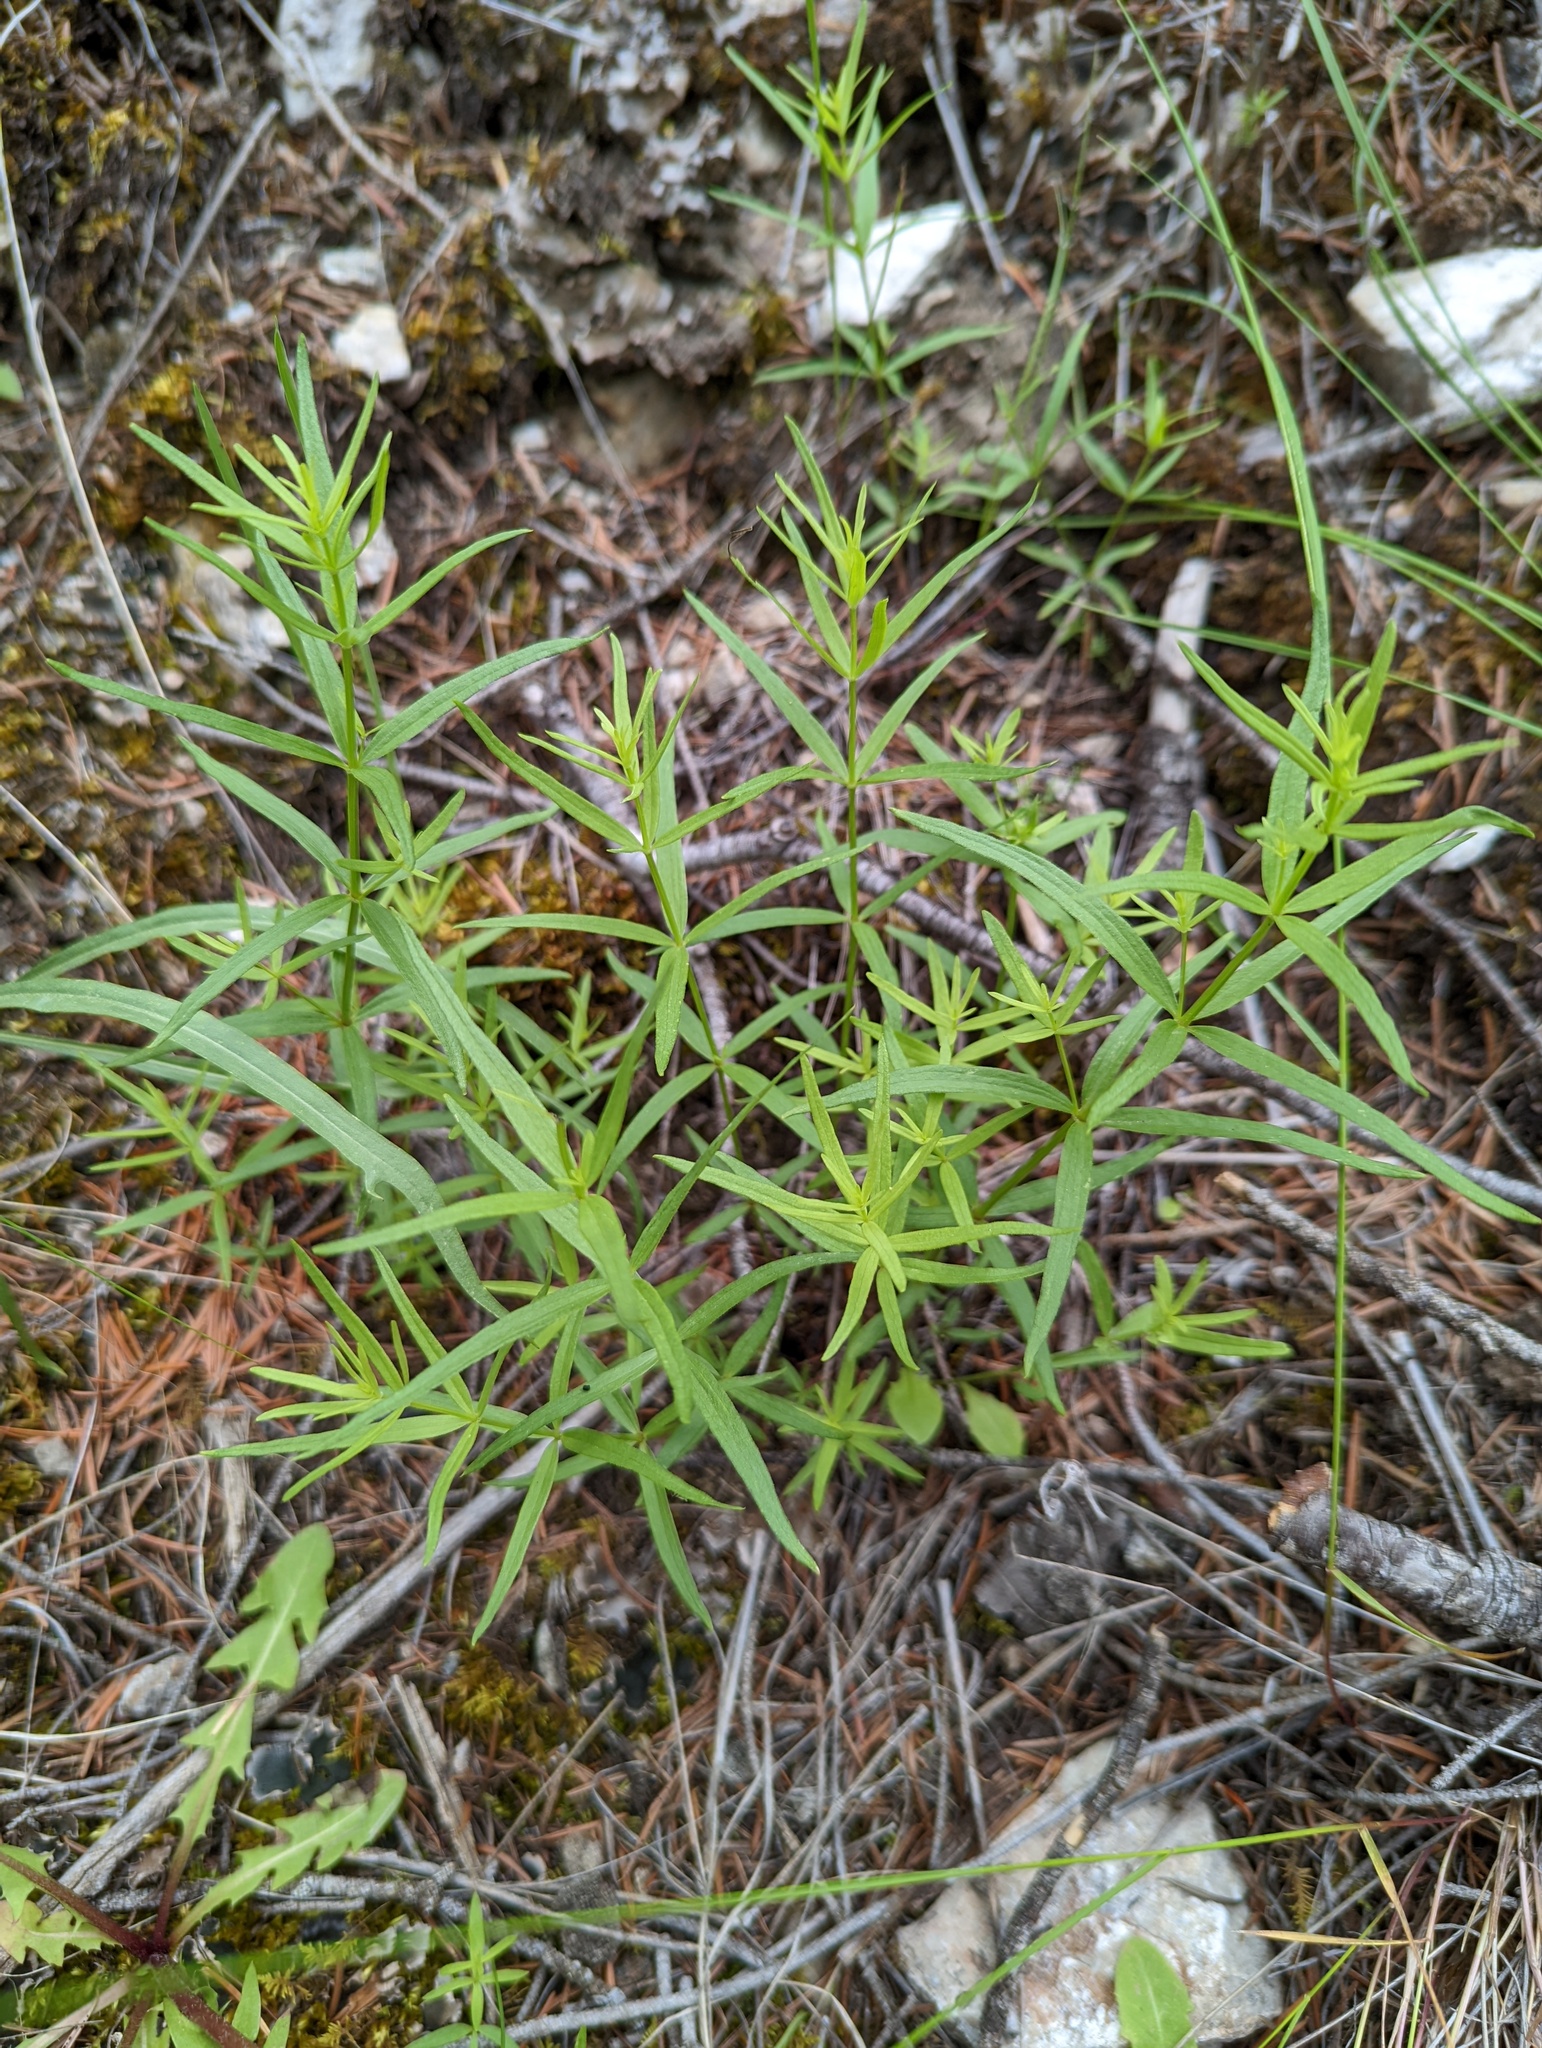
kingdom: Plantae
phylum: Tracheophyta
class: Magnoliopsida
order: Gentianales
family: Rubiaceae
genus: Galium
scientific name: Galium boreale
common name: Northern bedstraw
